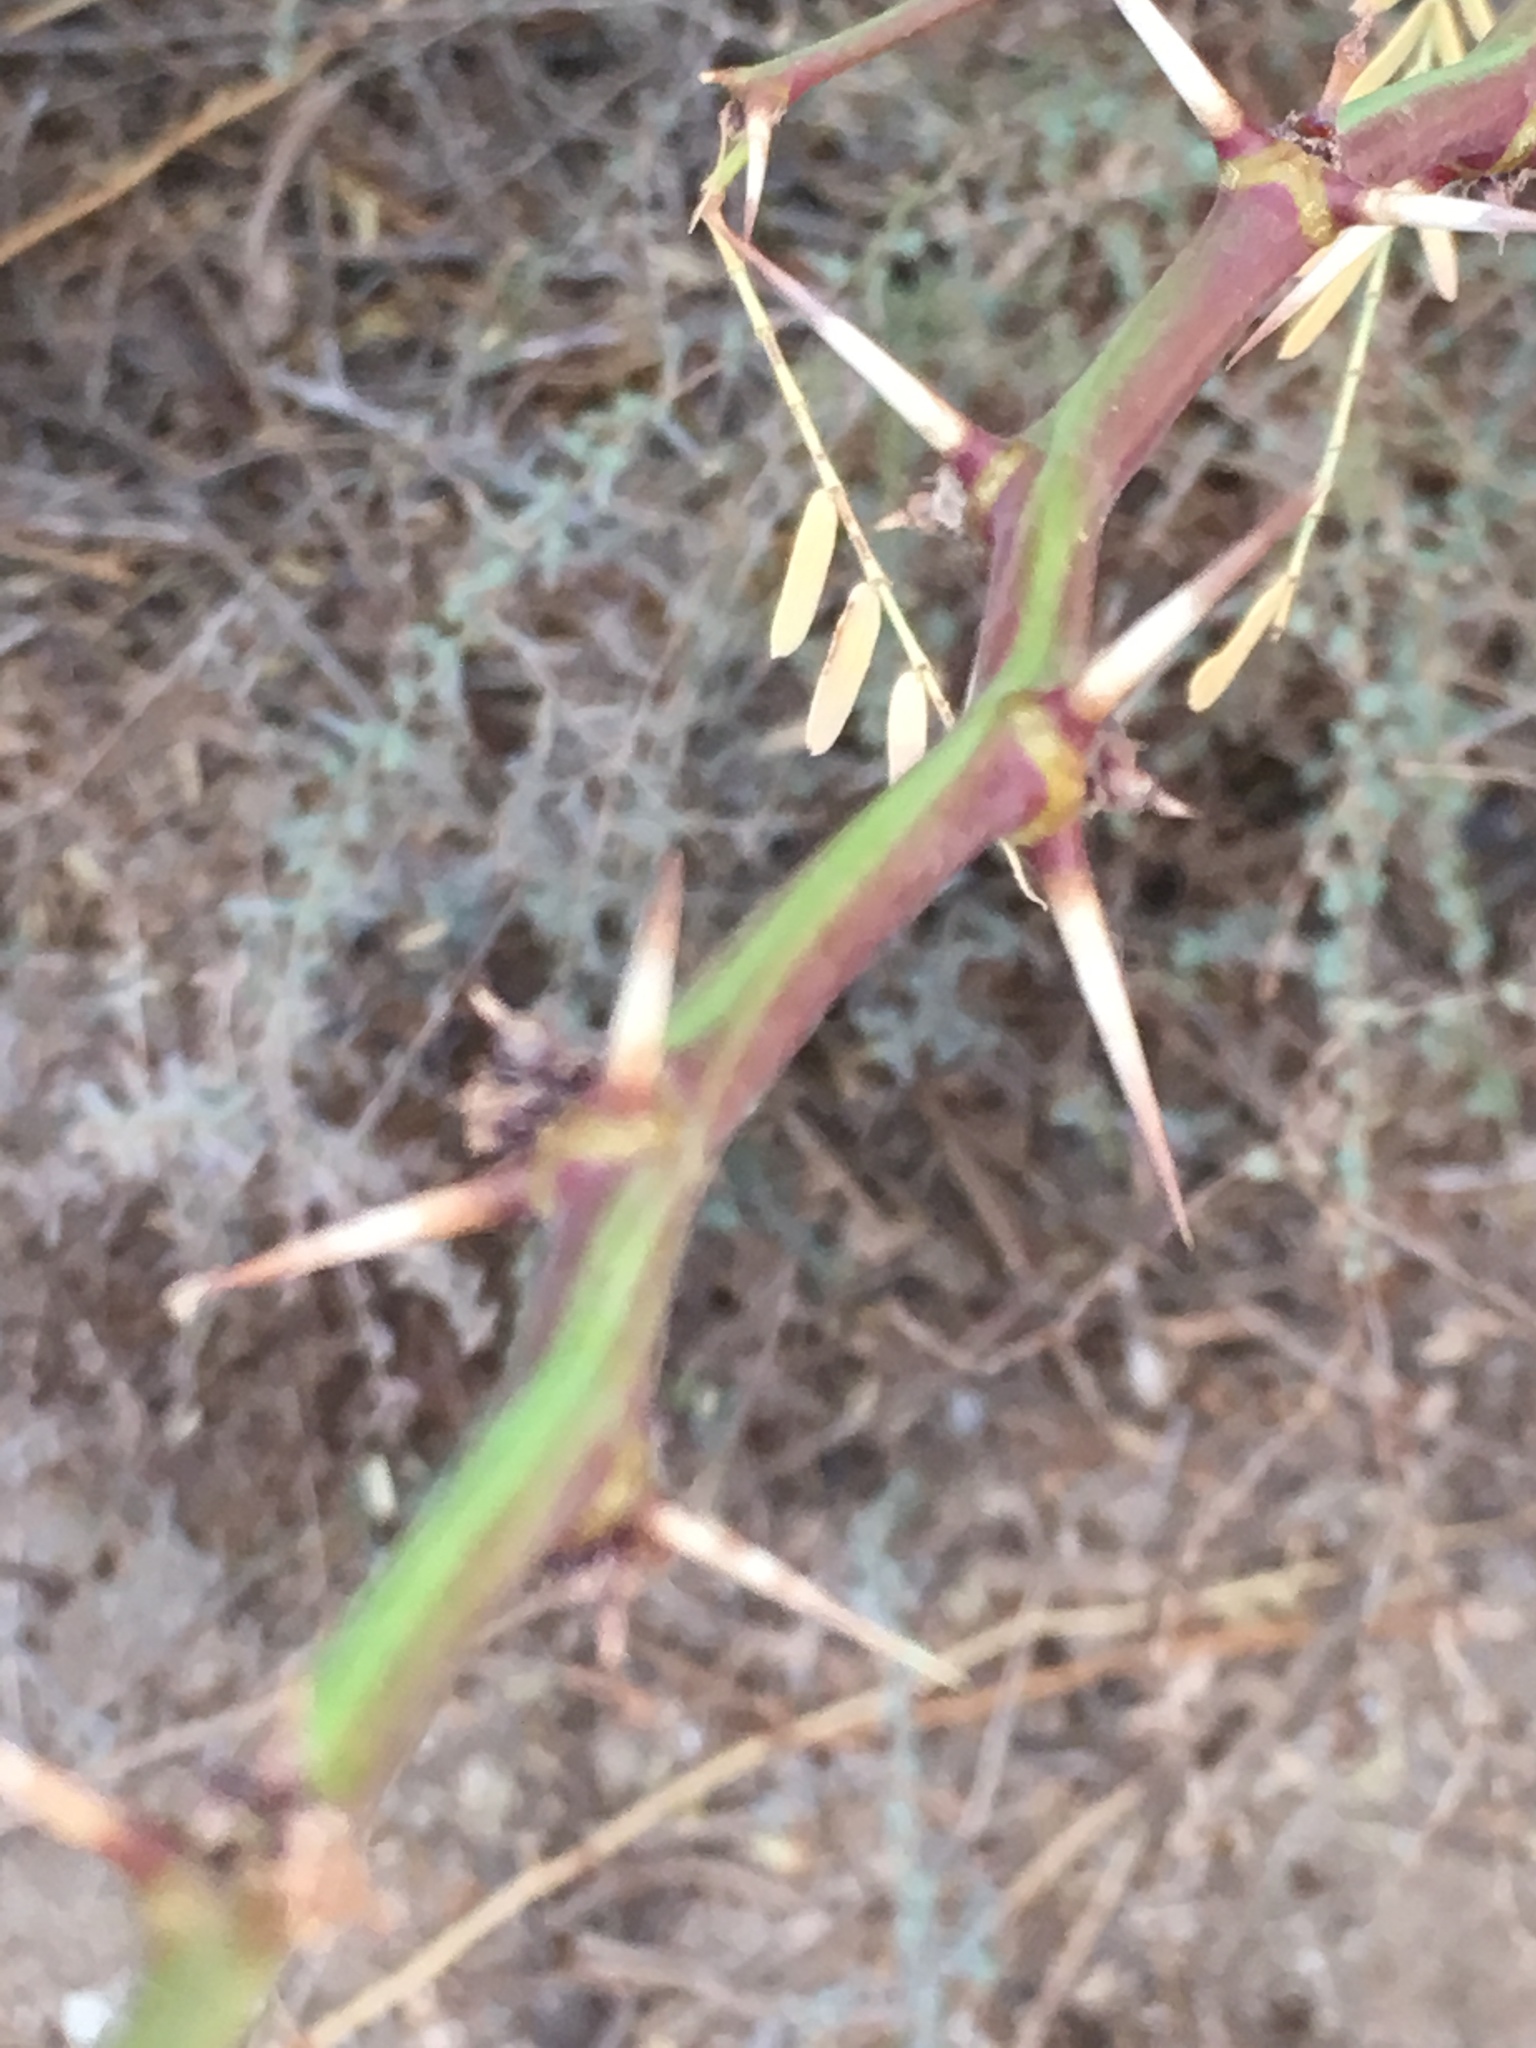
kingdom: Plantae
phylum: Tracheophyta
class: Magnoliopsida
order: Fabales
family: Fabaceae
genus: Prosopis
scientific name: Prosopis pubescens
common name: Screw-bean
